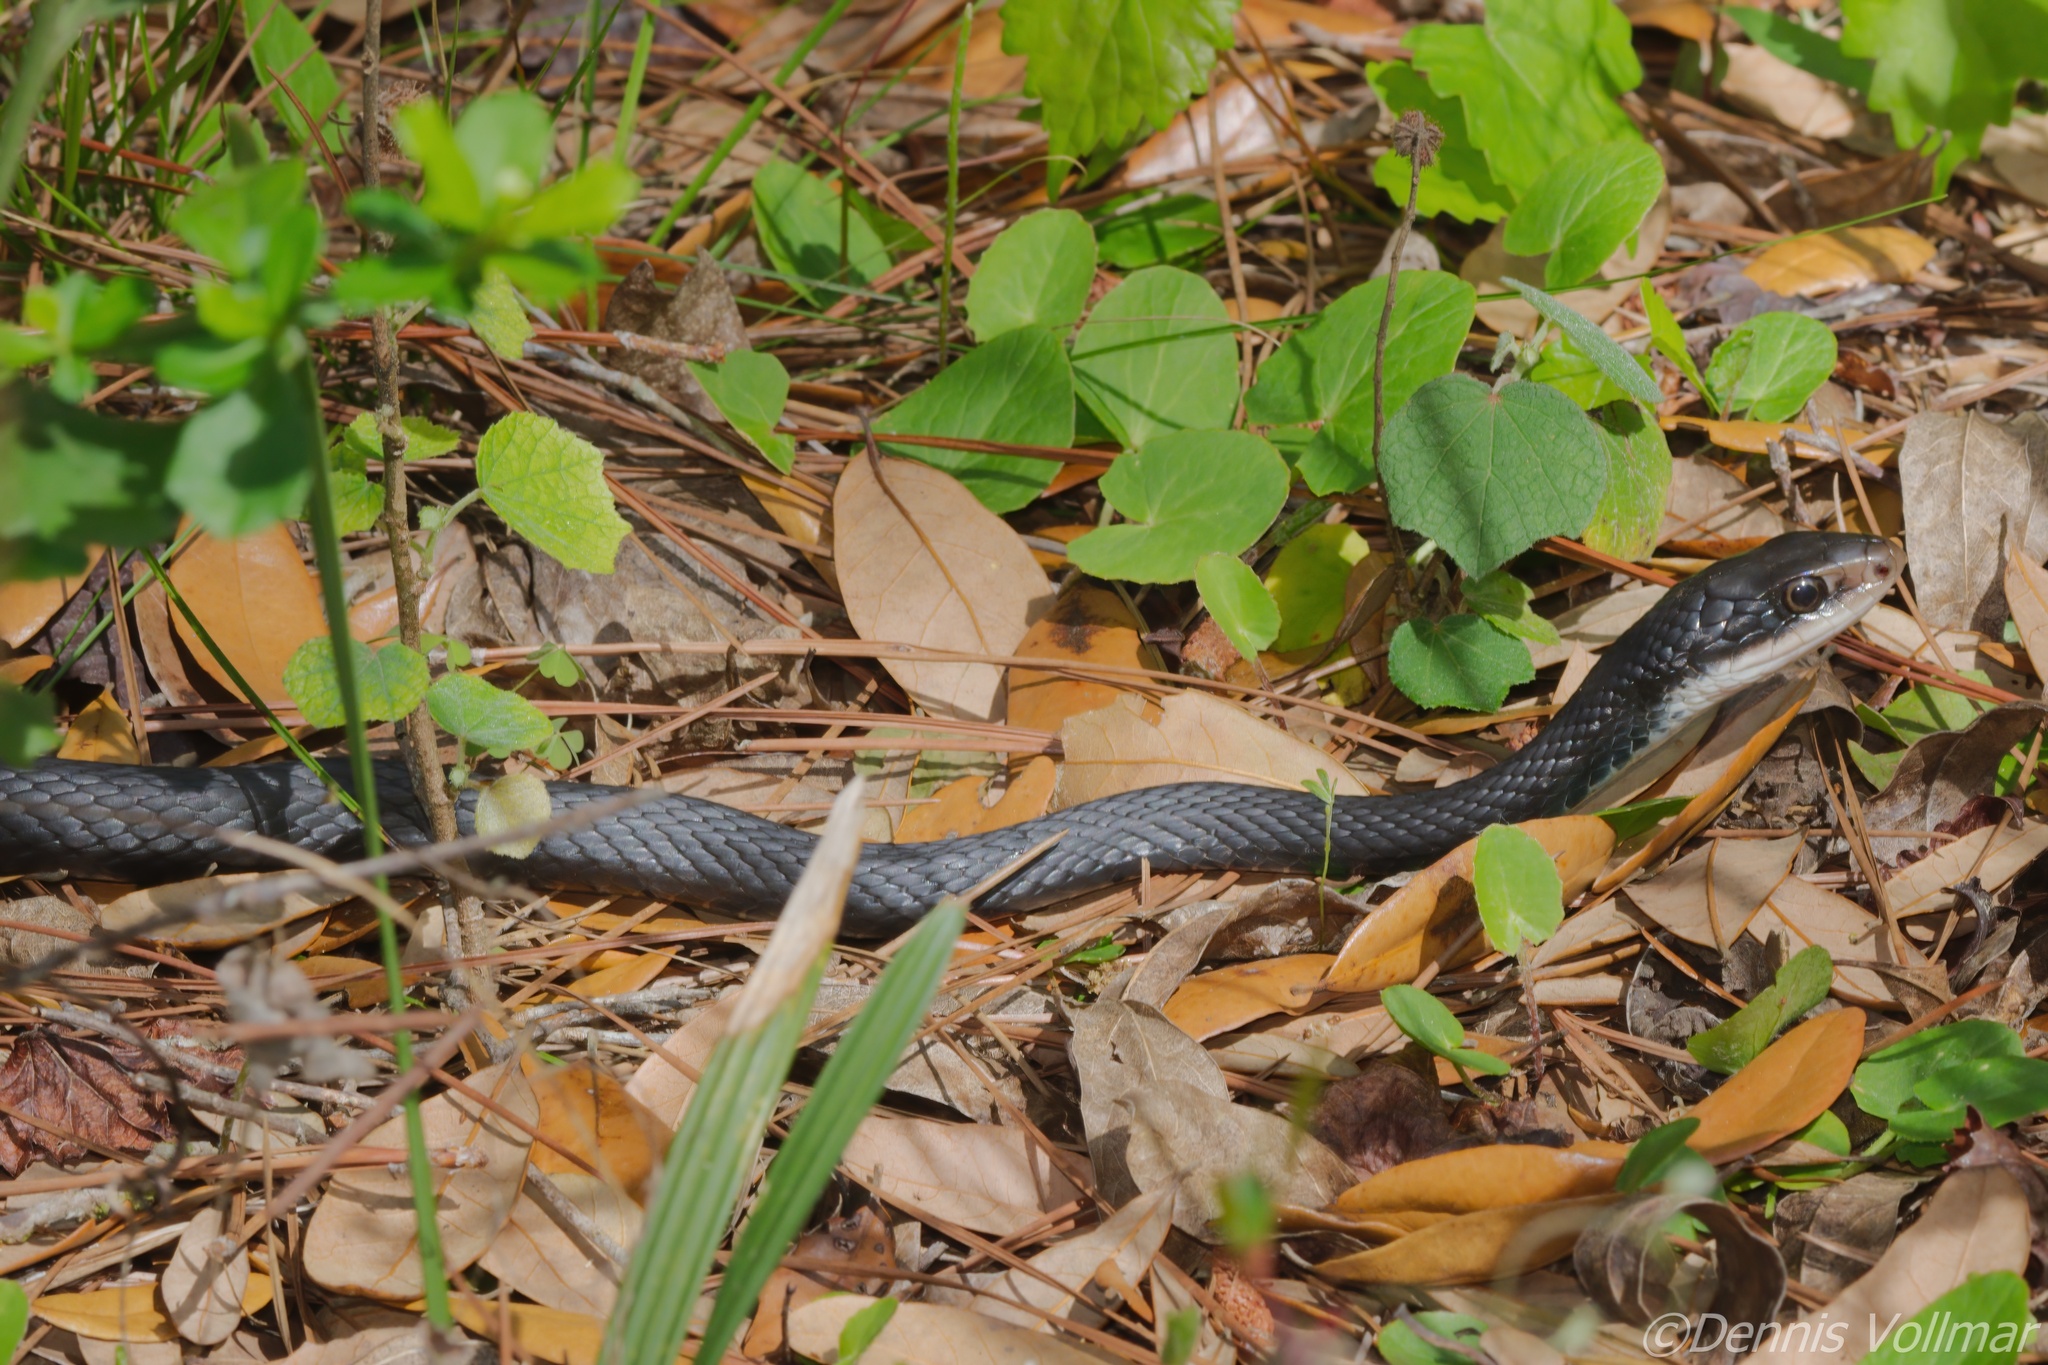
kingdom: Animalia
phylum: Chordata
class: Squamata
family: Colubridae
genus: Coluber
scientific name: Coluber constrictor
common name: Eastern racer
